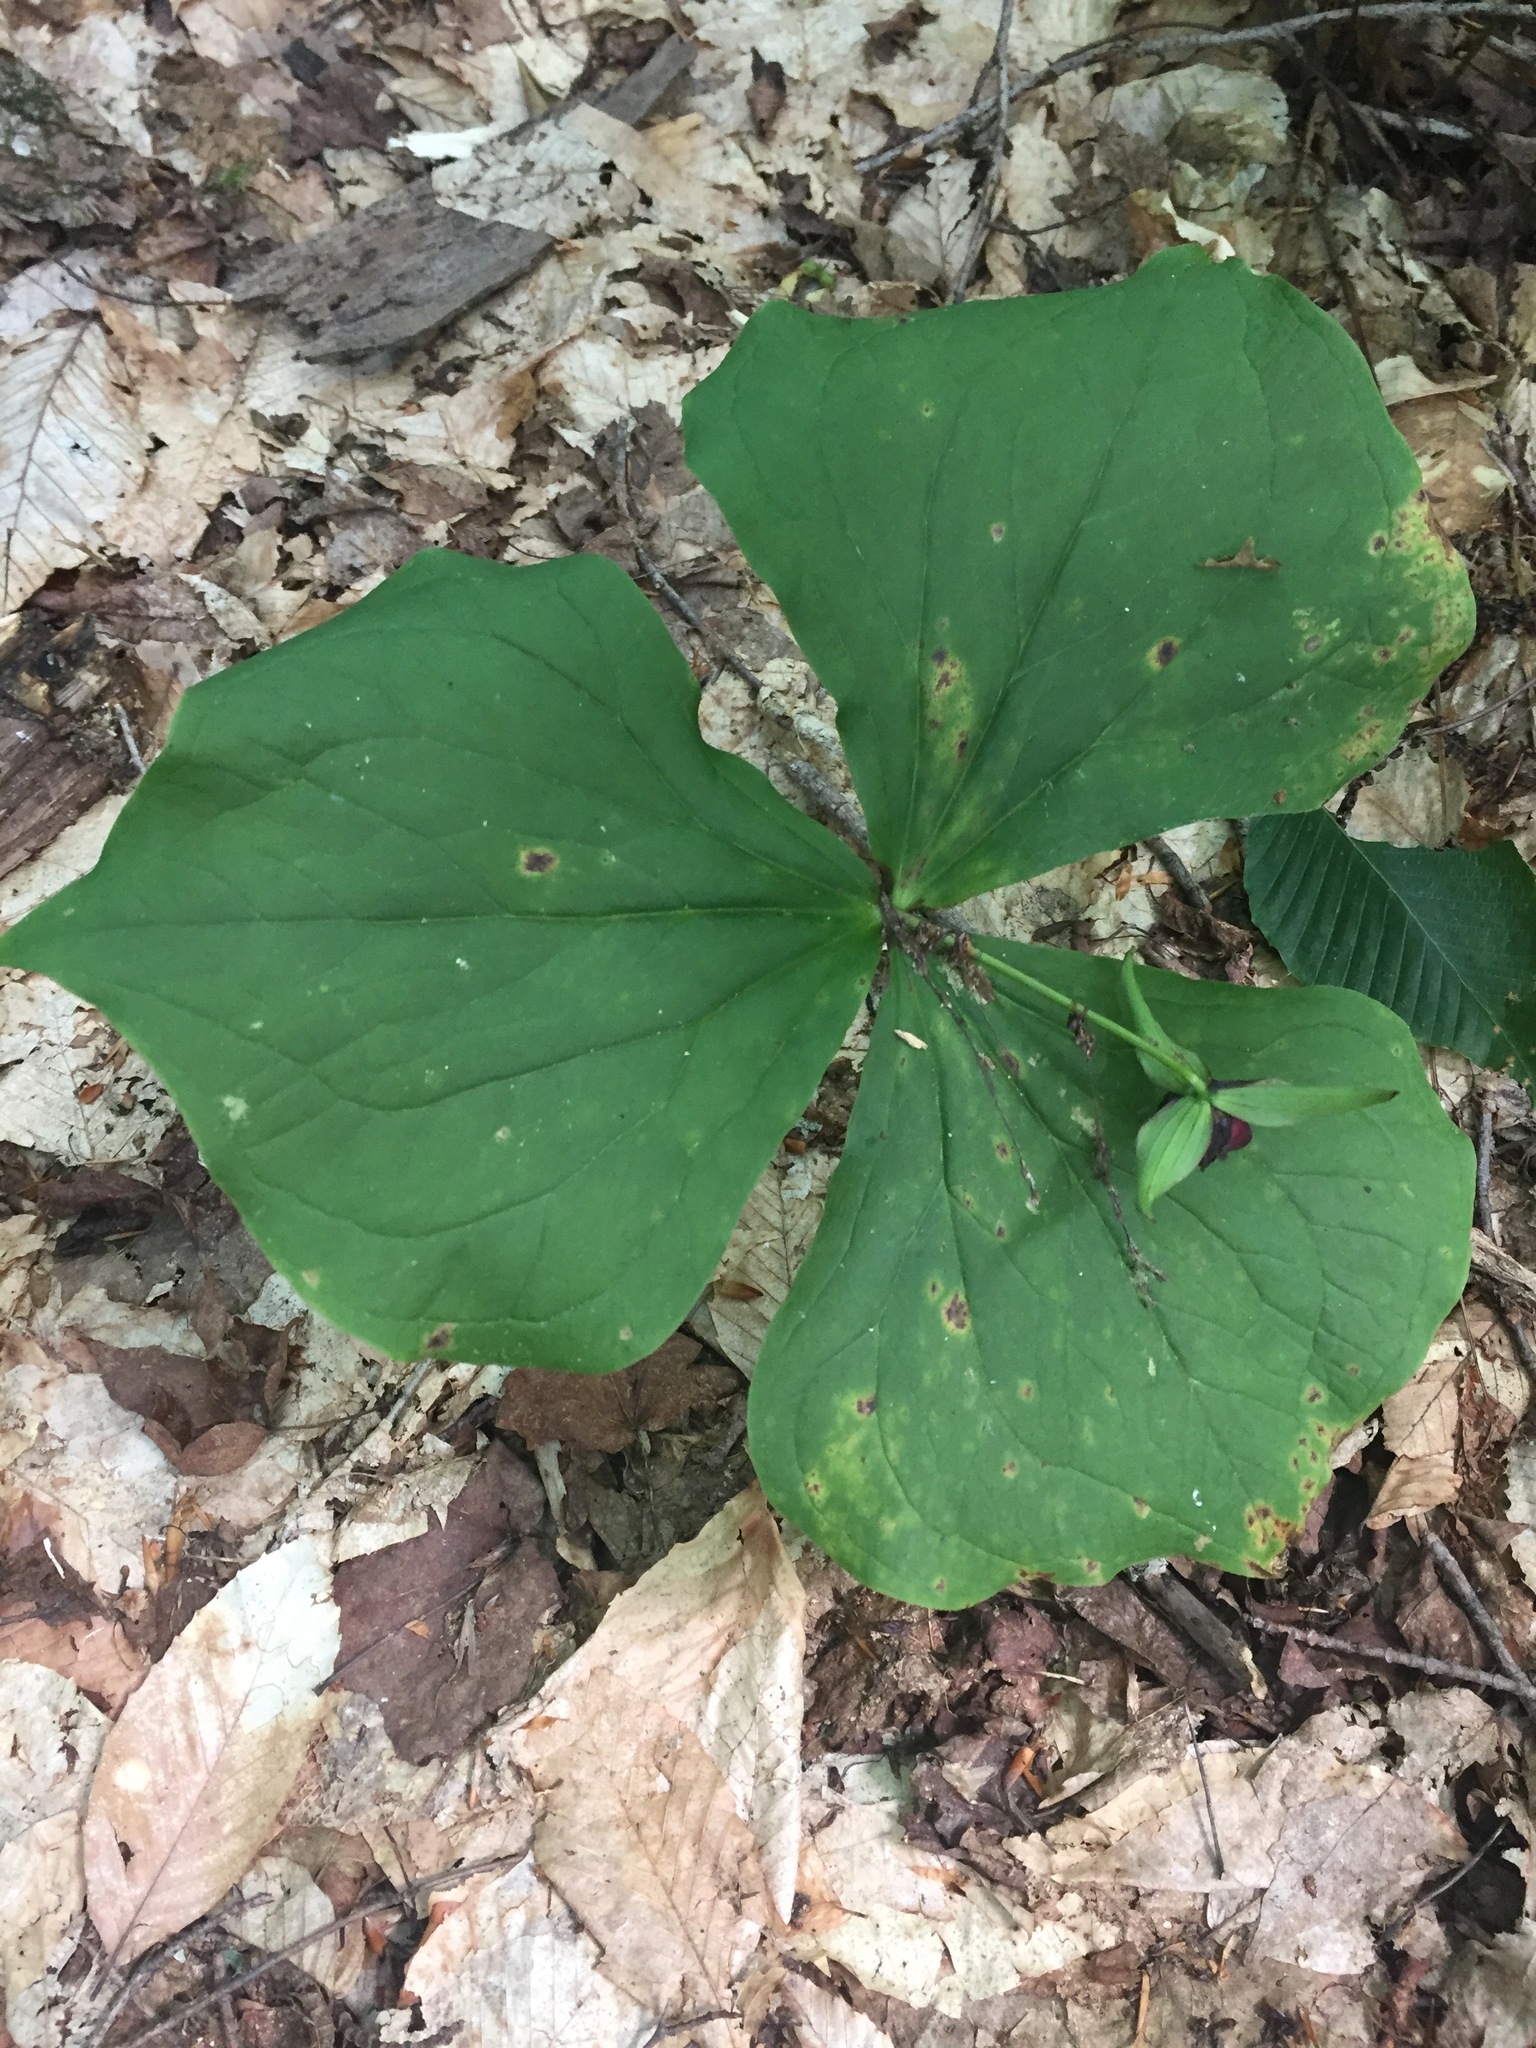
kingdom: Plantae
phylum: Tracheophyta
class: Liliopsida
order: Liliales
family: Melanthiaceae
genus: Trillium
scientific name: Trillium erectum
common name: Purple trillium
